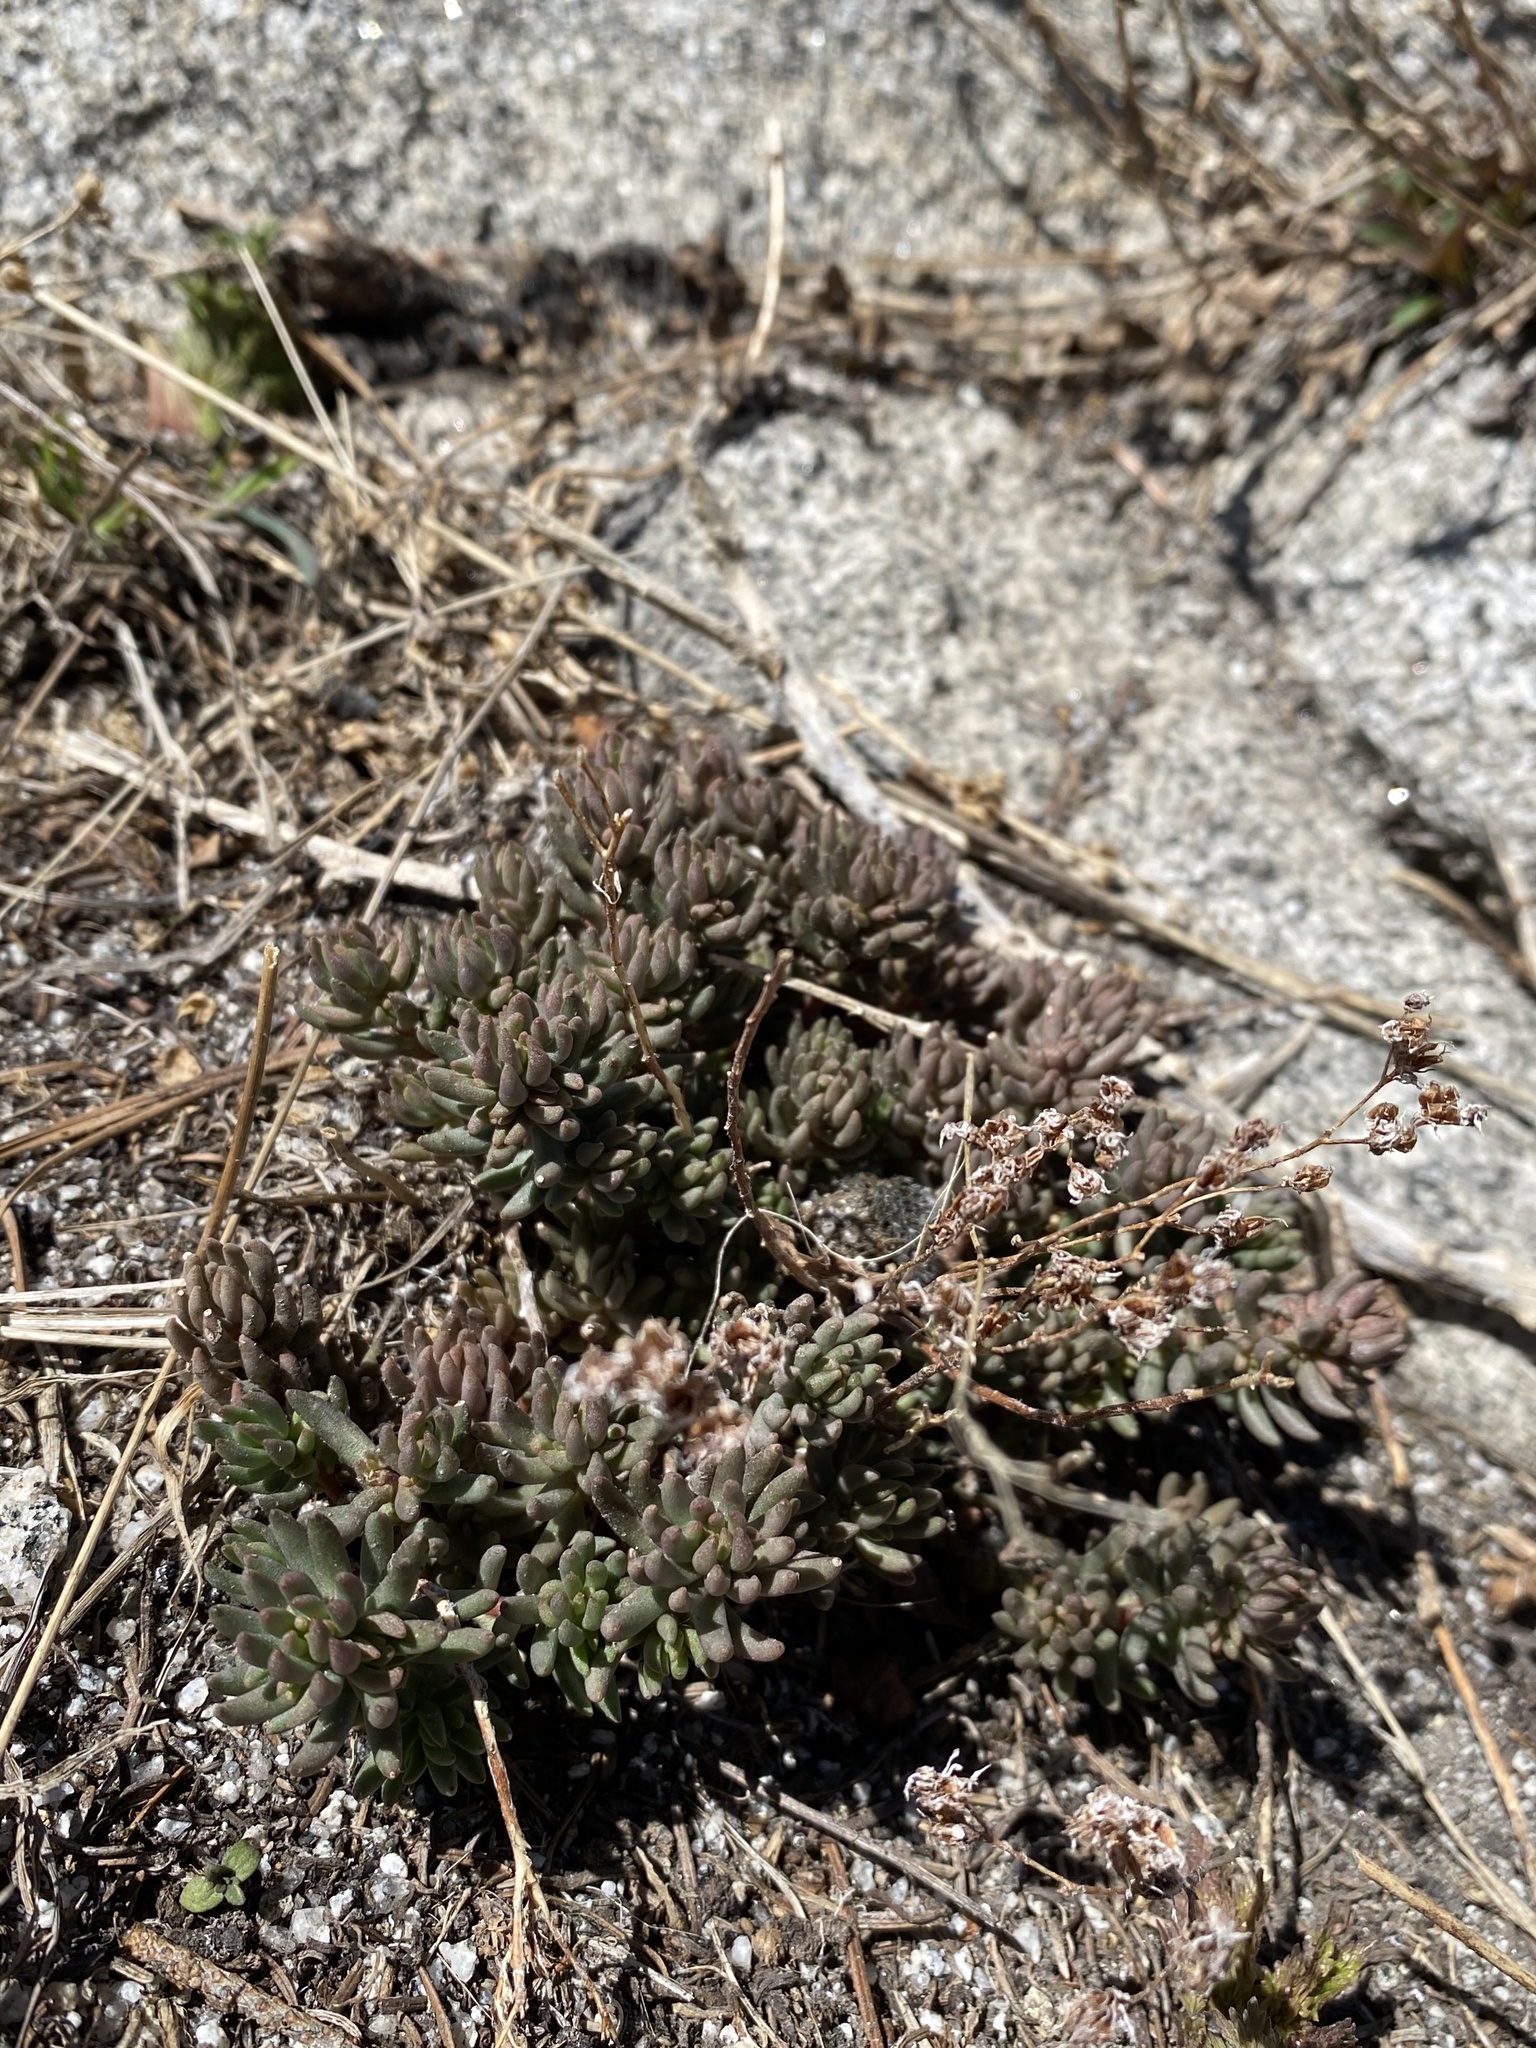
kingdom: Plantae
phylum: Tracheophyta
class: Magnoliopsida
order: Saxifragales
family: Crassulaceae
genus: Sedum
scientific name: Sedum lanceolatum
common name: Common stonecrop
